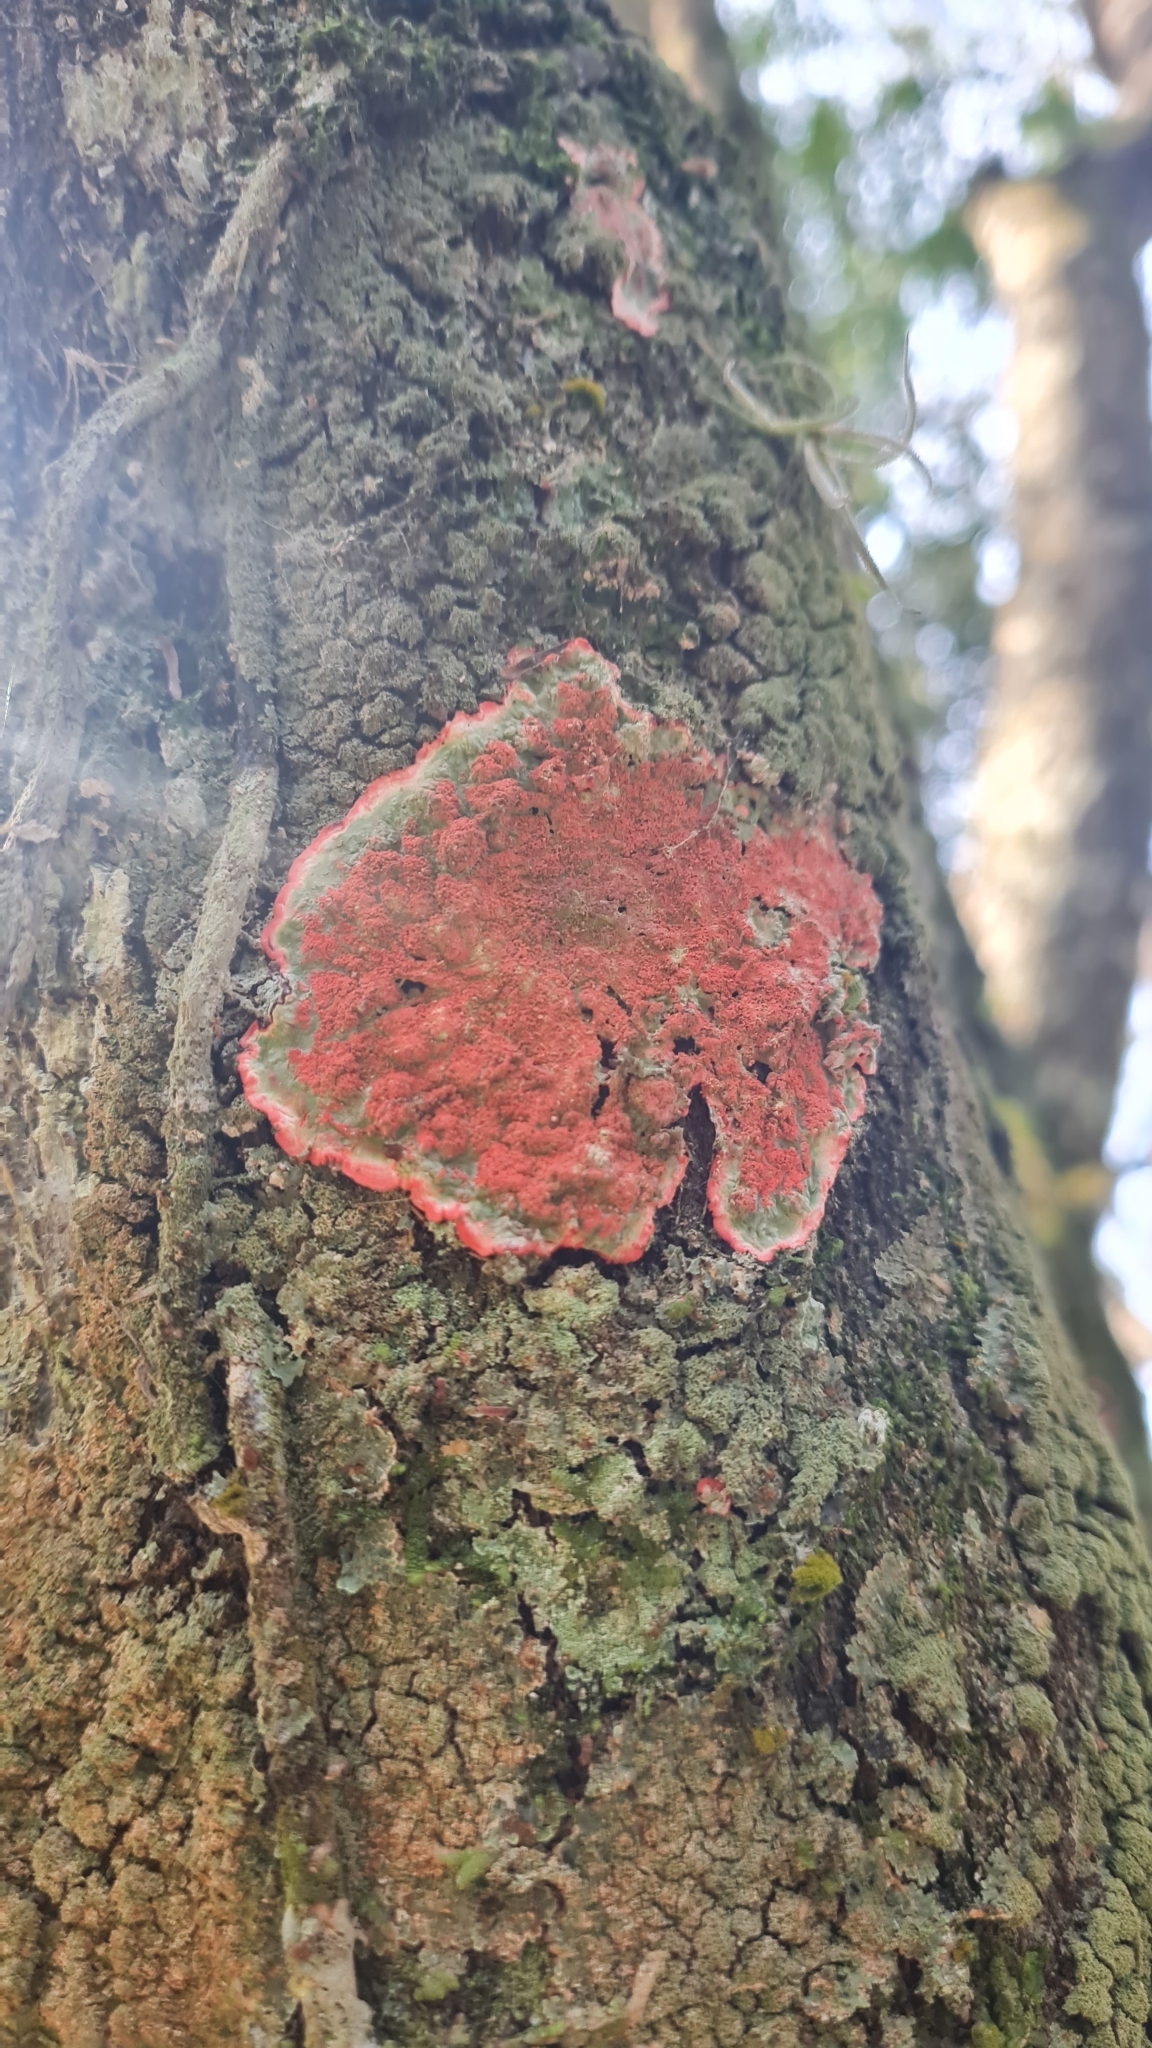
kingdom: Fungi
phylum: Ascomycota
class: Arthoniomycetes
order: Arthoniales
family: Arthoniaceae
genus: Herpothallon
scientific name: Herpothallon rubrocinctum
